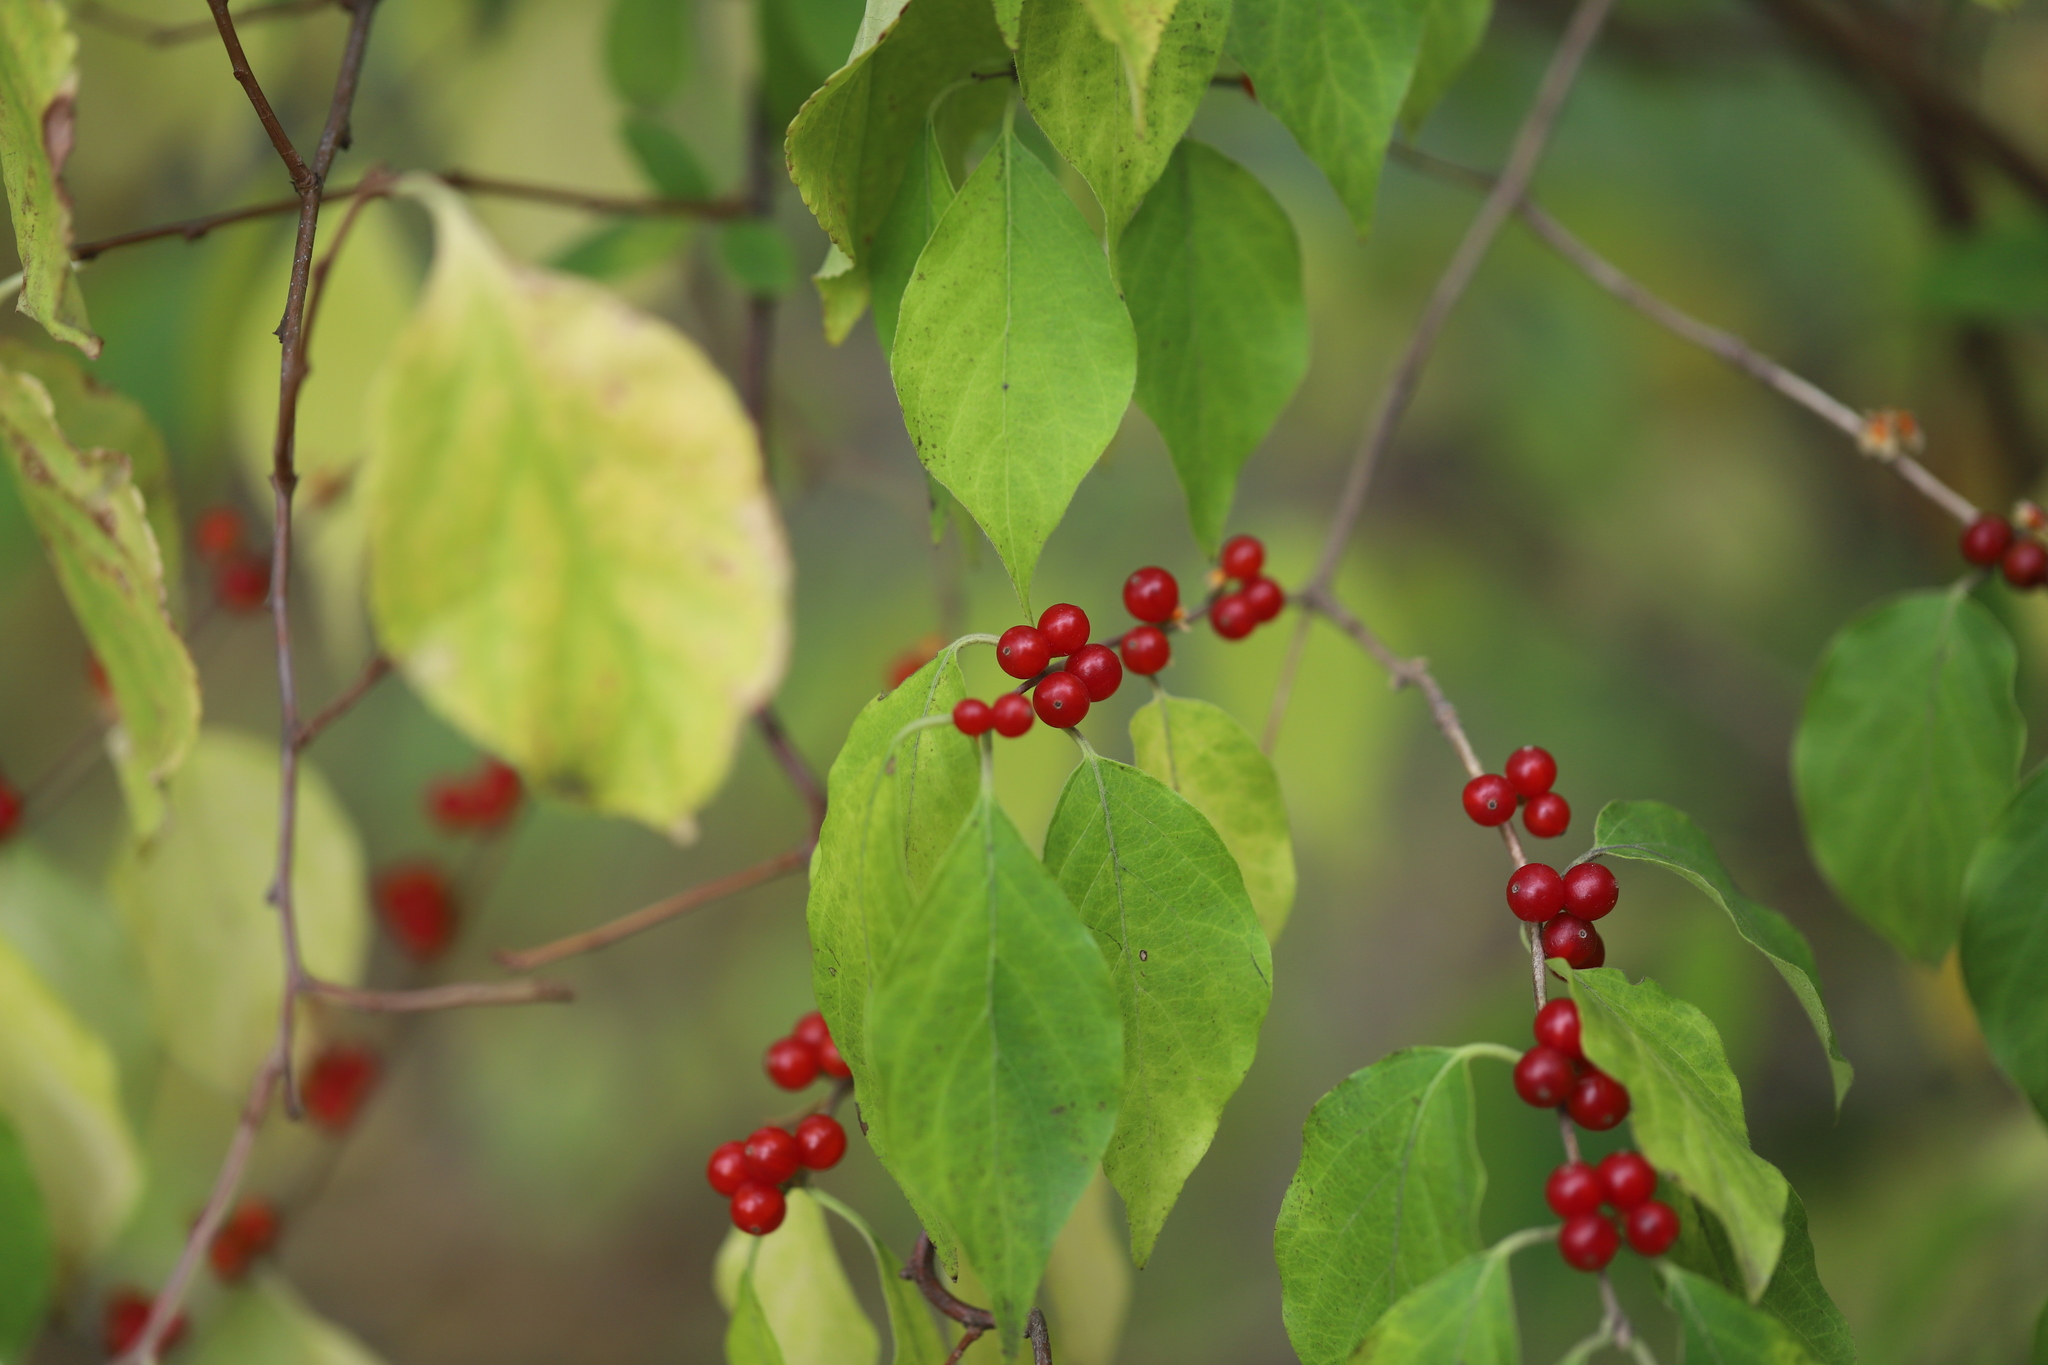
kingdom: Plantae
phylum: Tracheophyta
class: Magnoliopsida
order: Dipsacales
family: Caprifoliaceae
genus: Lonicera
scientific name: Lonicera maackii
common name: Amur honeysuckle
